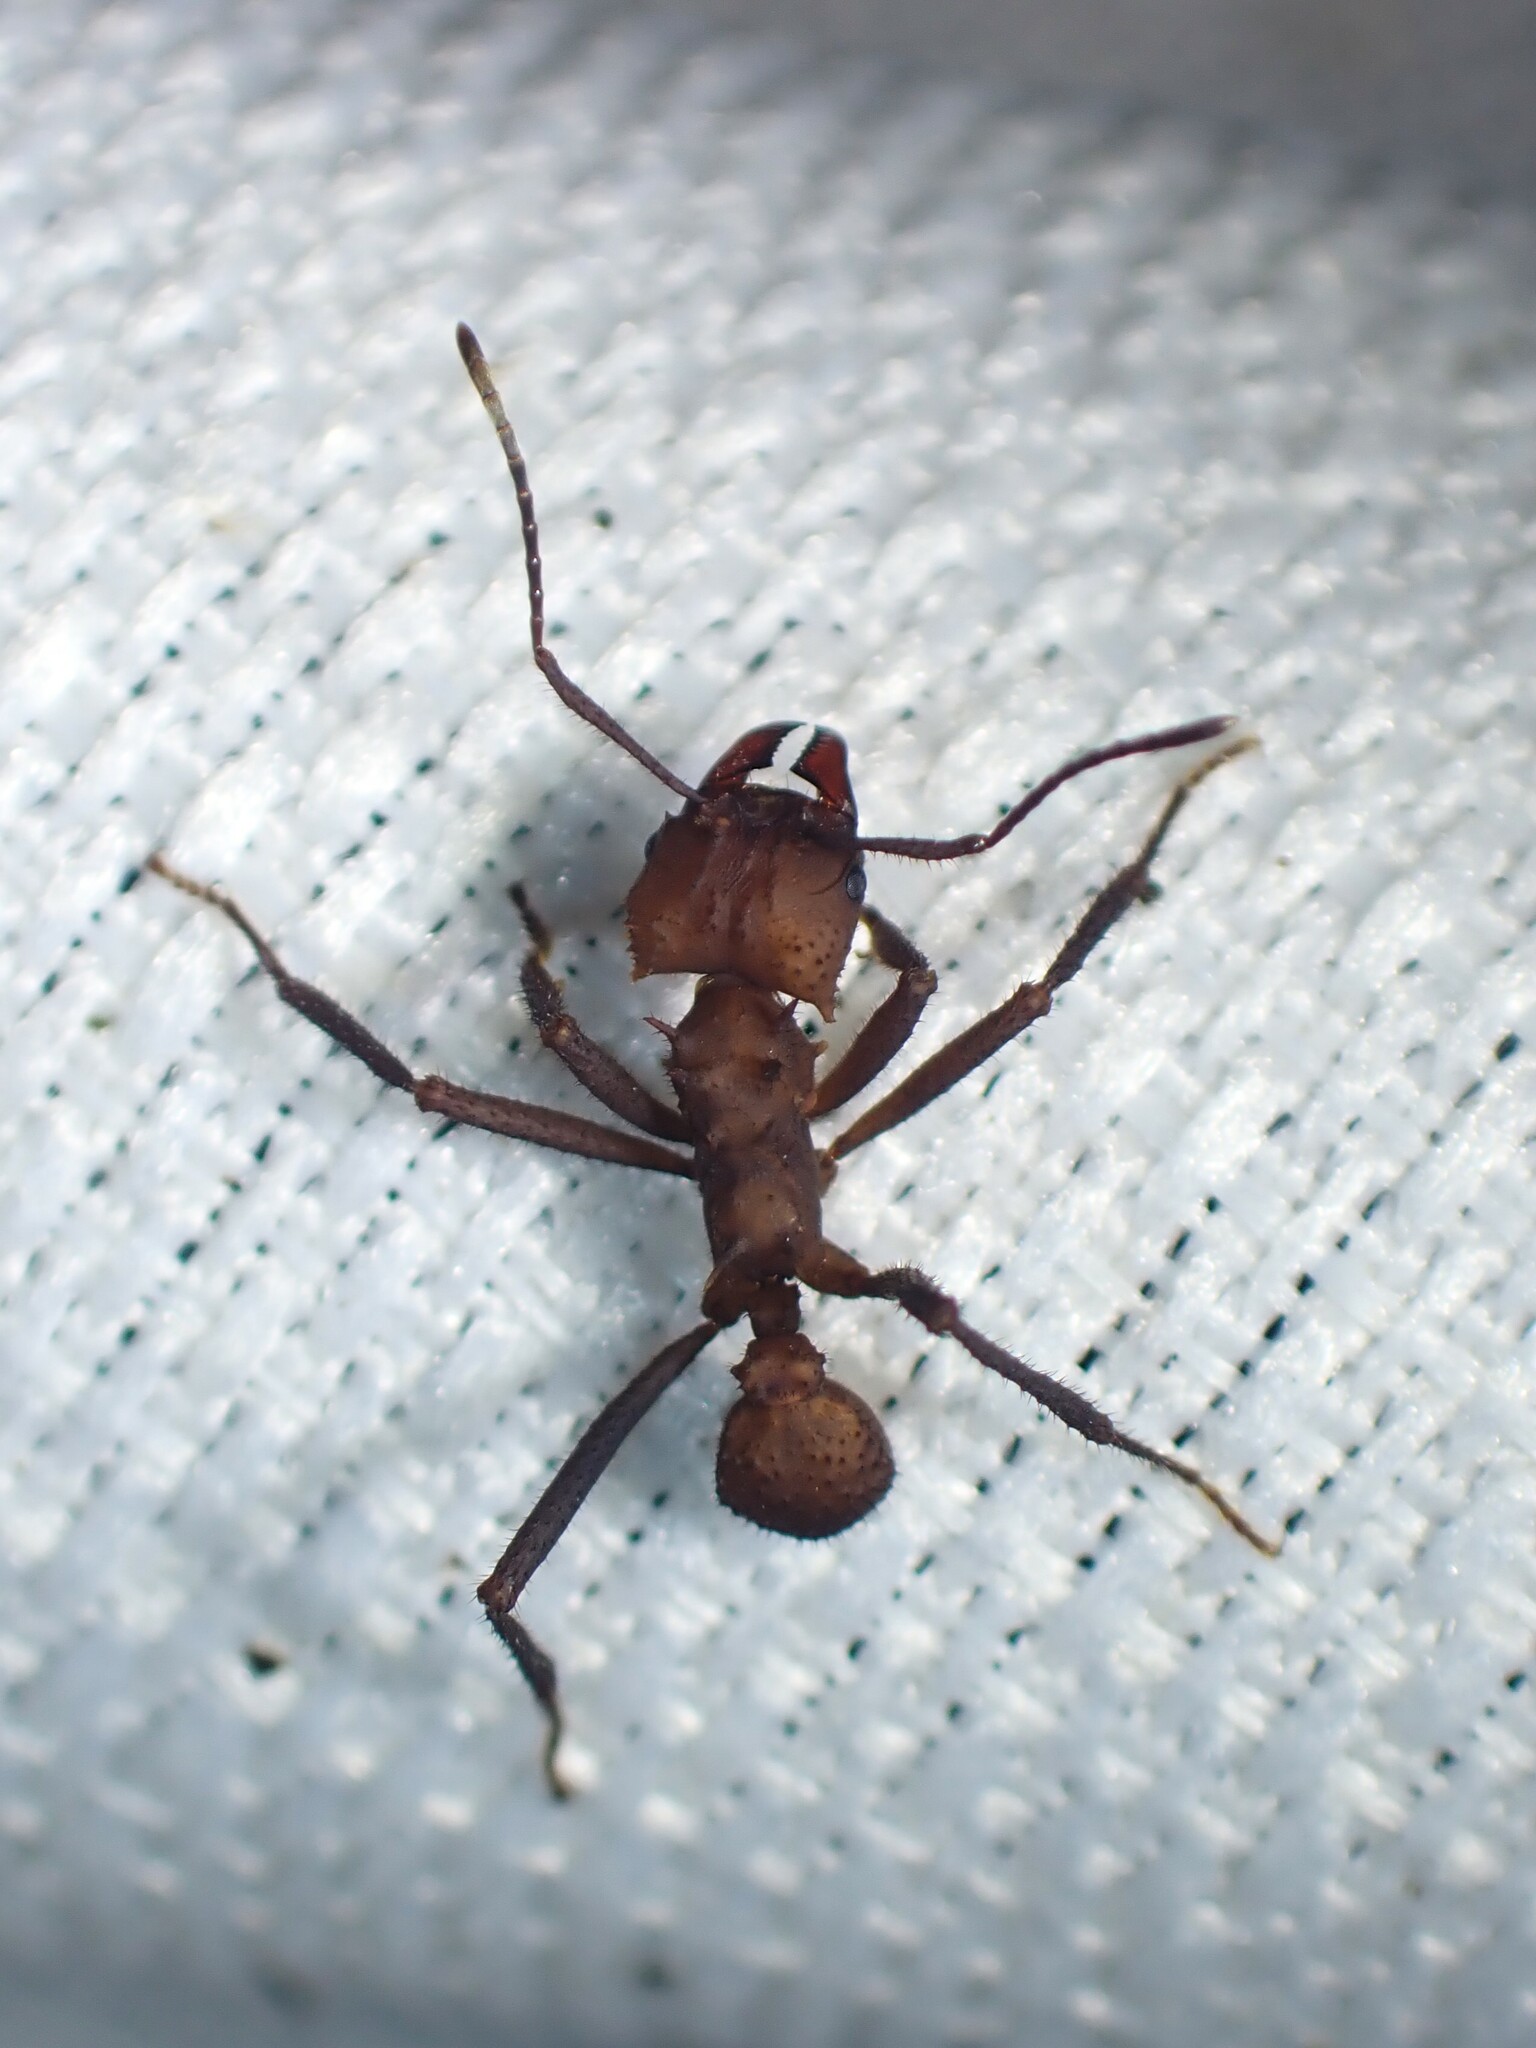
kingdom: Animalia
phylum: Arthropoda
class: Insecta
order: Hymenoptera
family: Formicidae
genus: Acromyrmex
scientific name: Acromyrmex octospinosus
